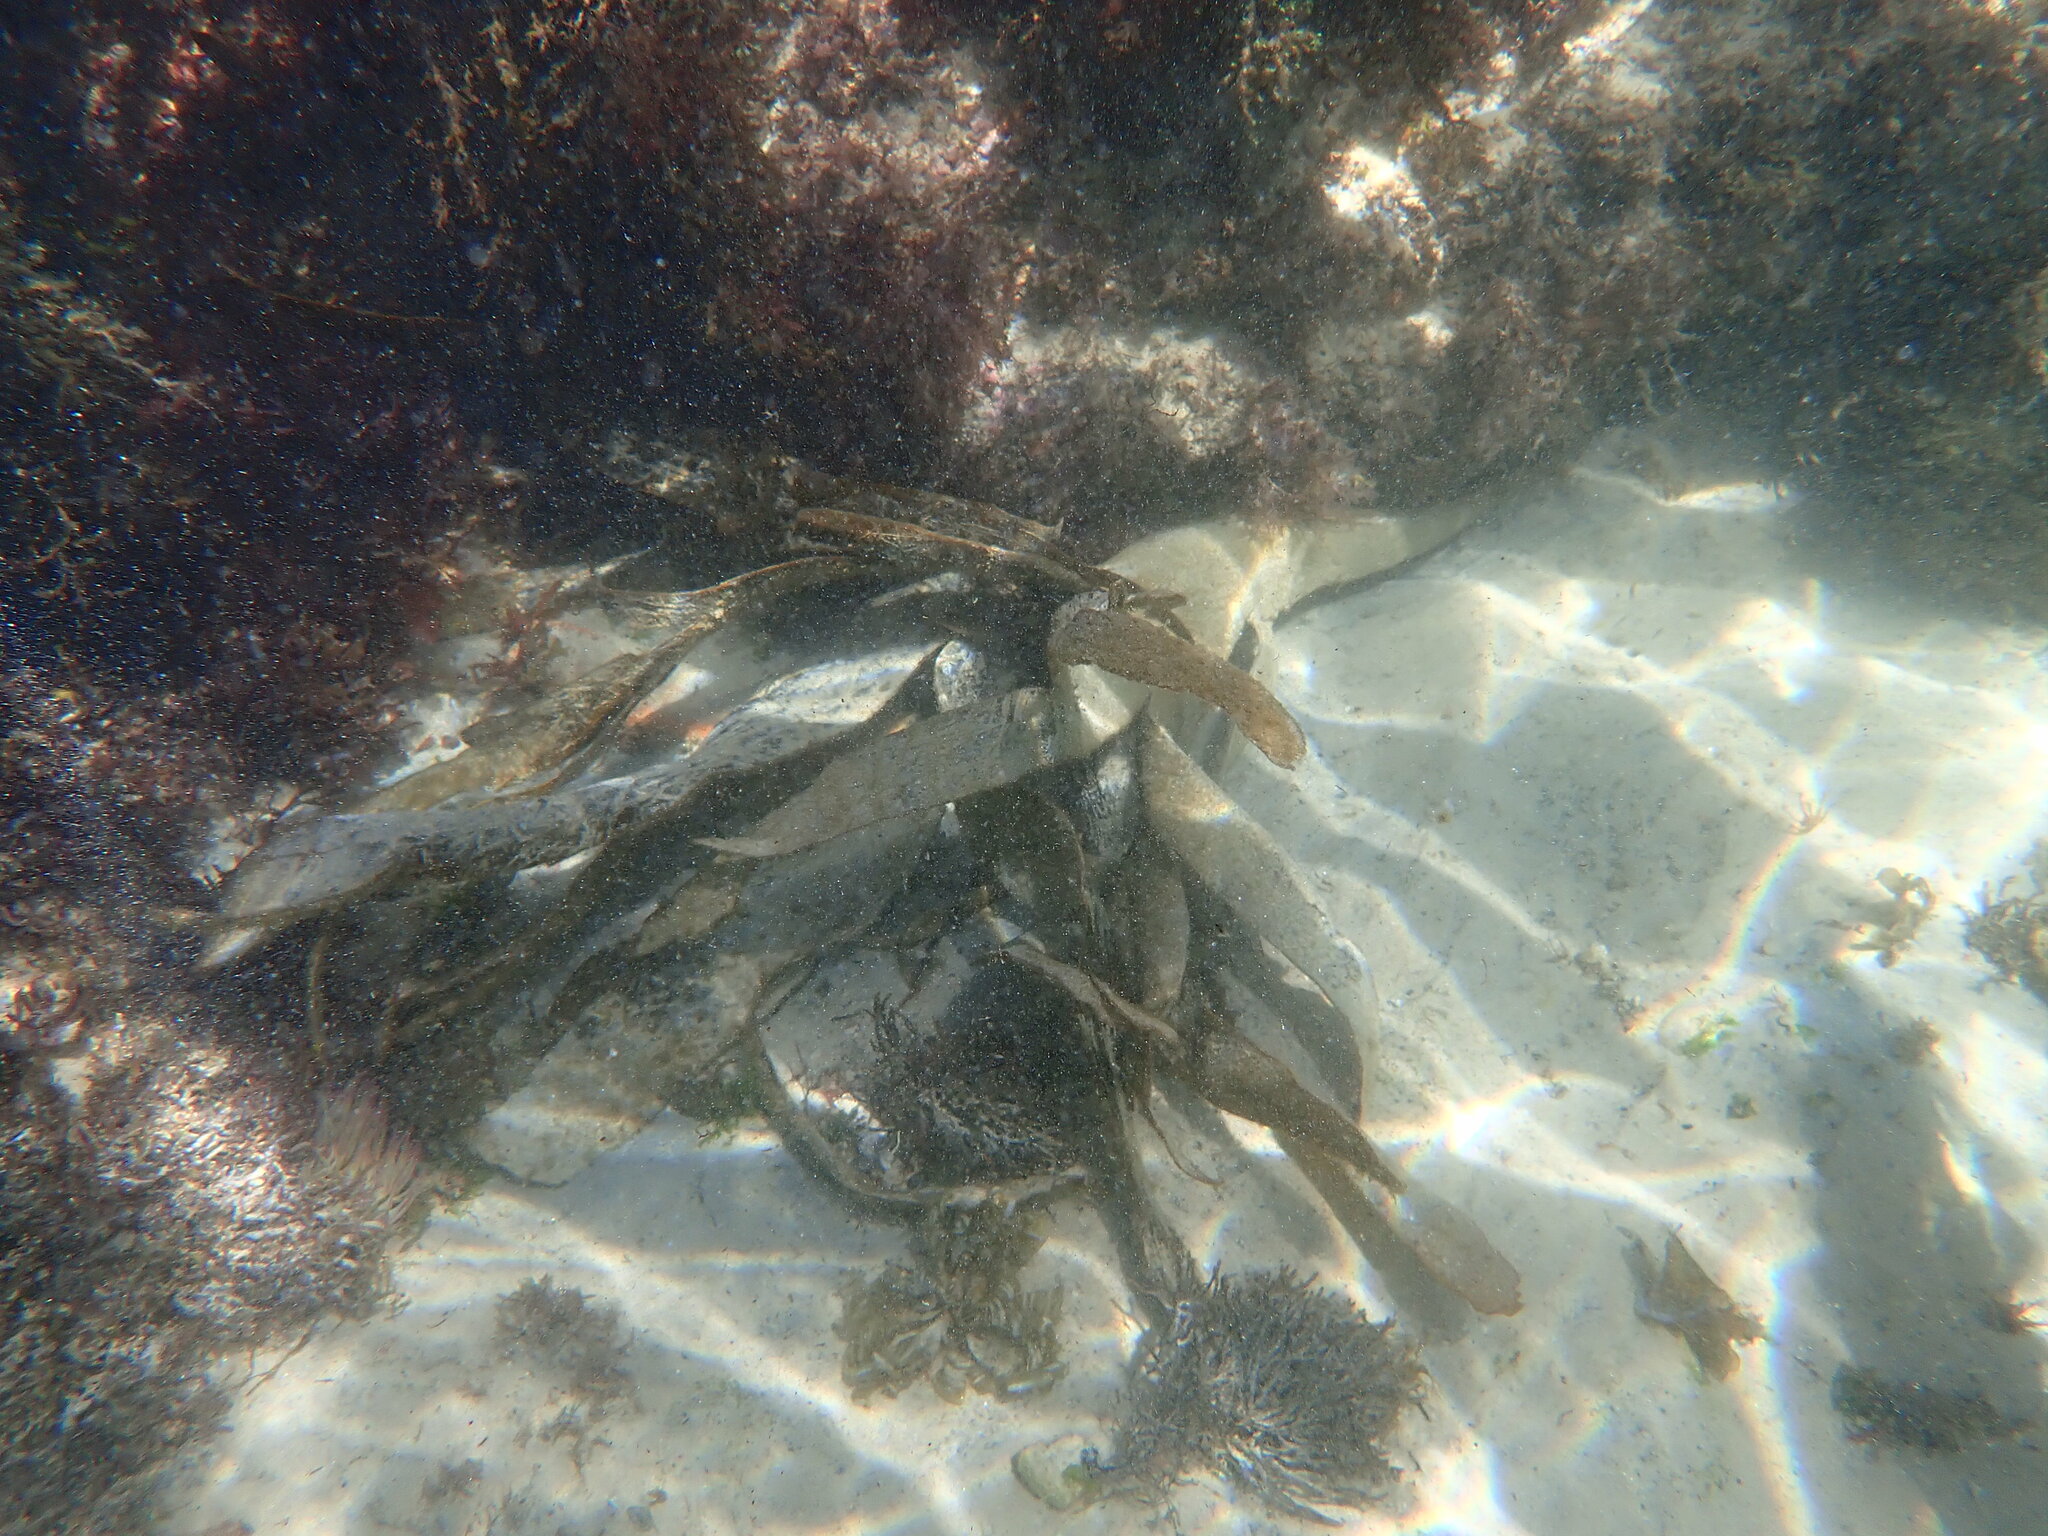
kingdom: Chromista
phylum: Ochrophyta
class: Phaeophyceae
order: Tilopteridales
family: Phyllariaceae
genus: Saccorhiza
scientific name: Saccorhiza polyschides
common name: Furbelows
